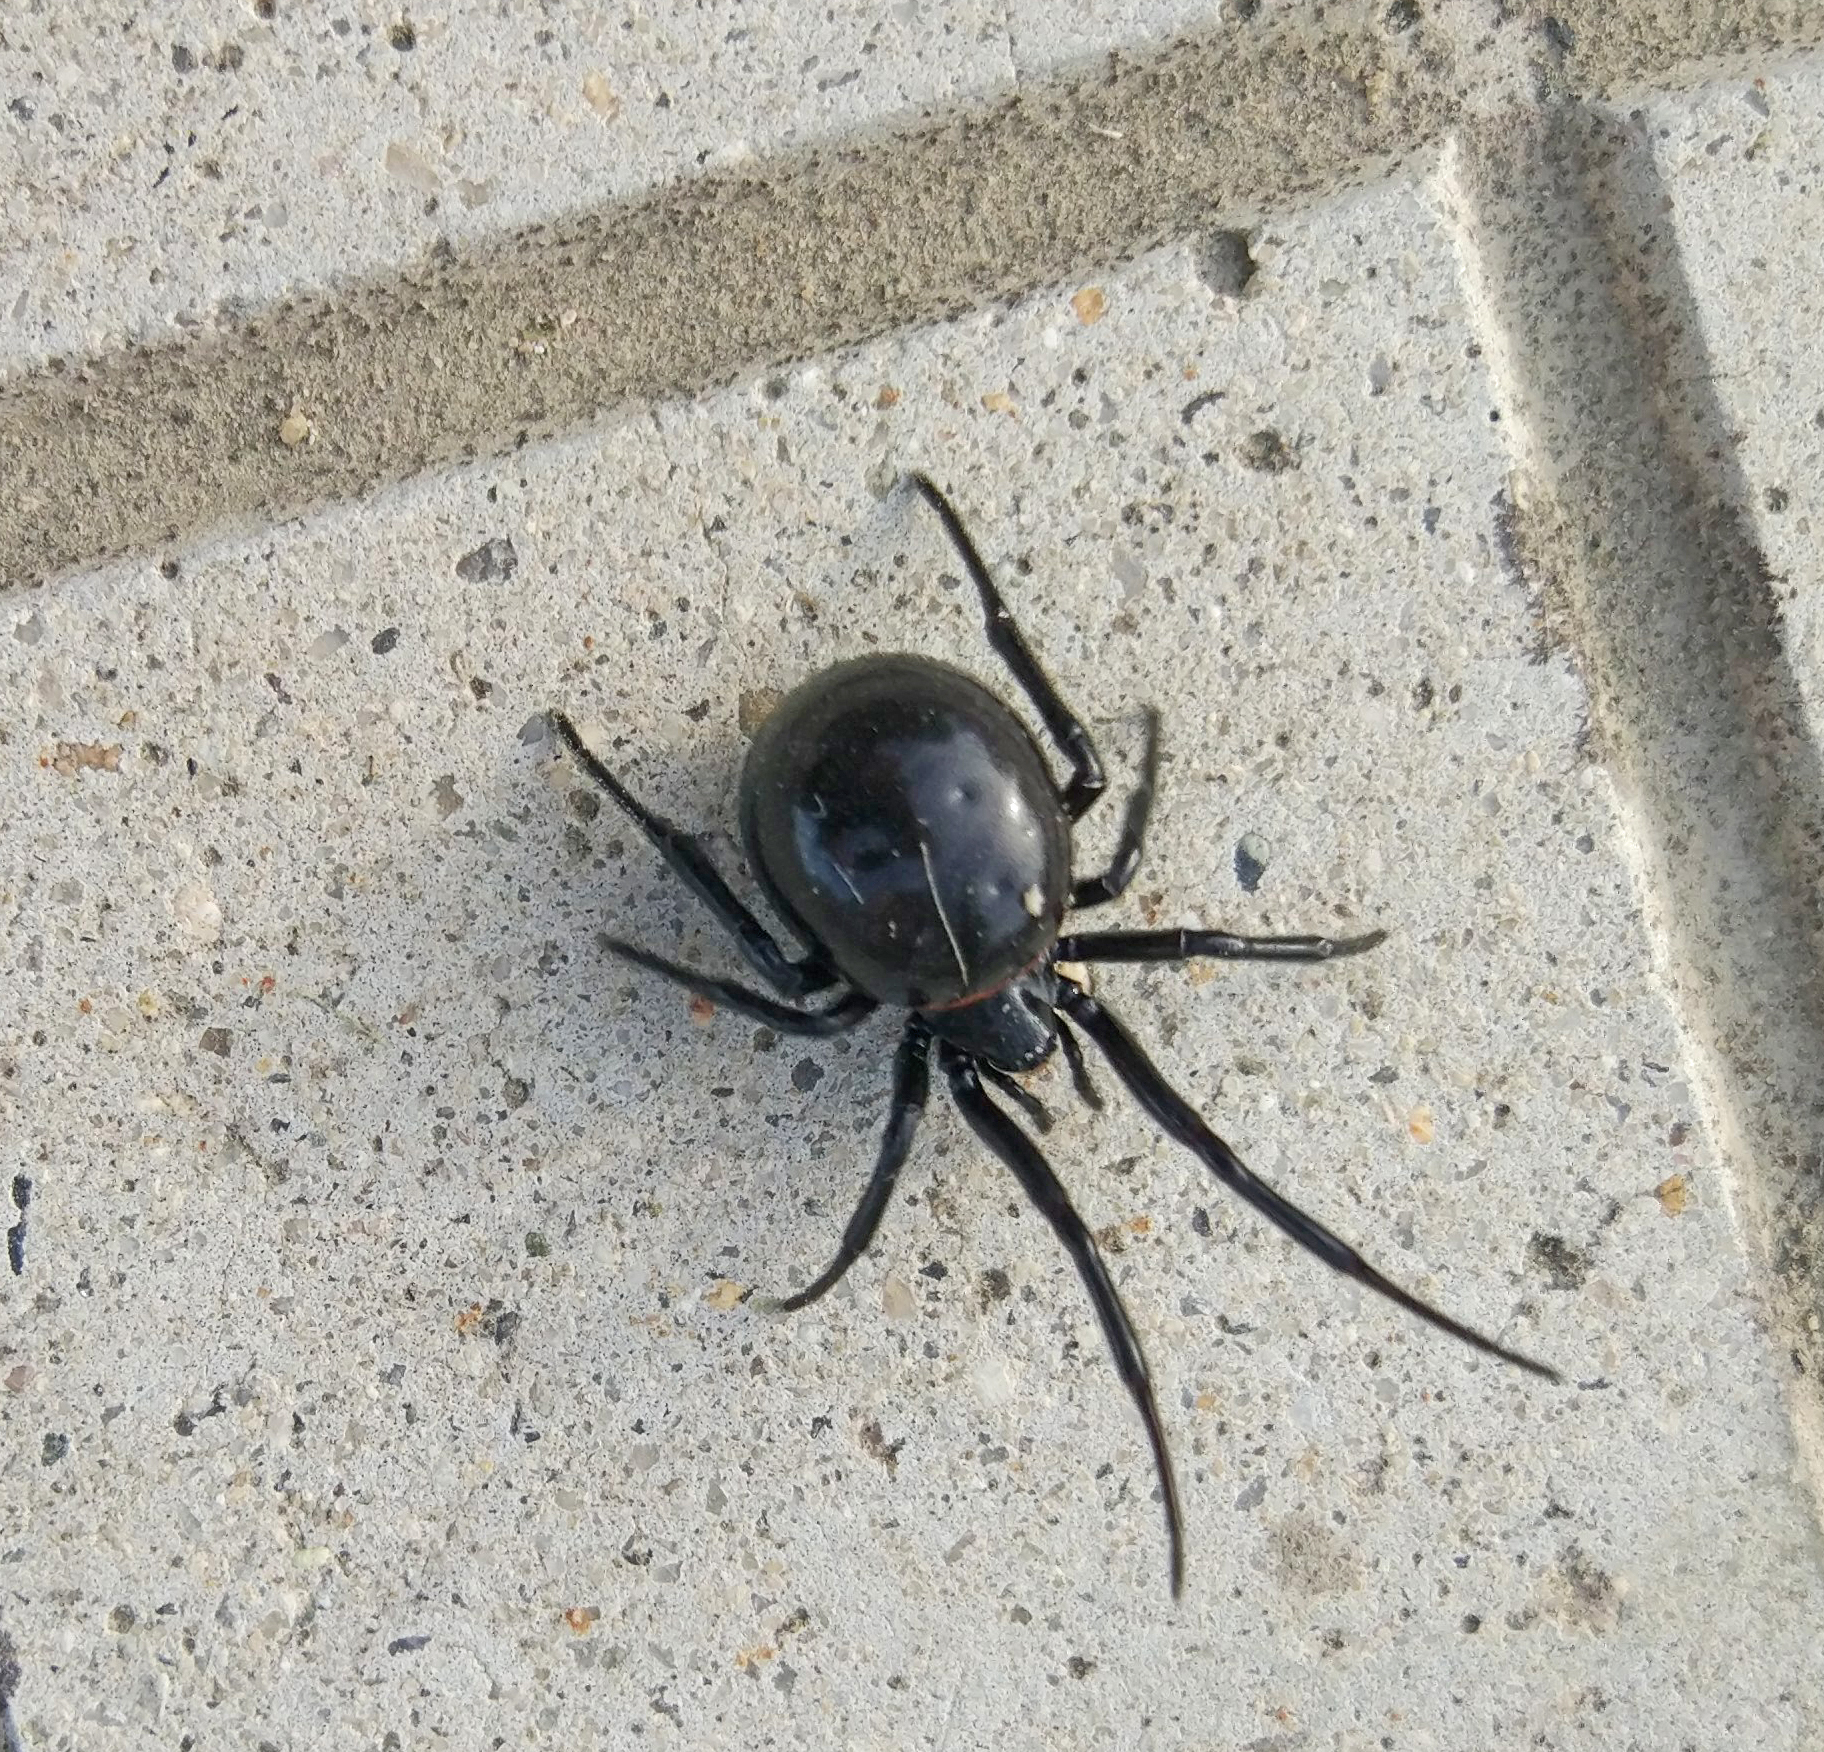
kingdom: Animalia
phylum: Arthropoda
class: Arachnida
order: Araneae
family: Theridiidae
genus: Steatoda
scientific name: Steatoda paykulliana
